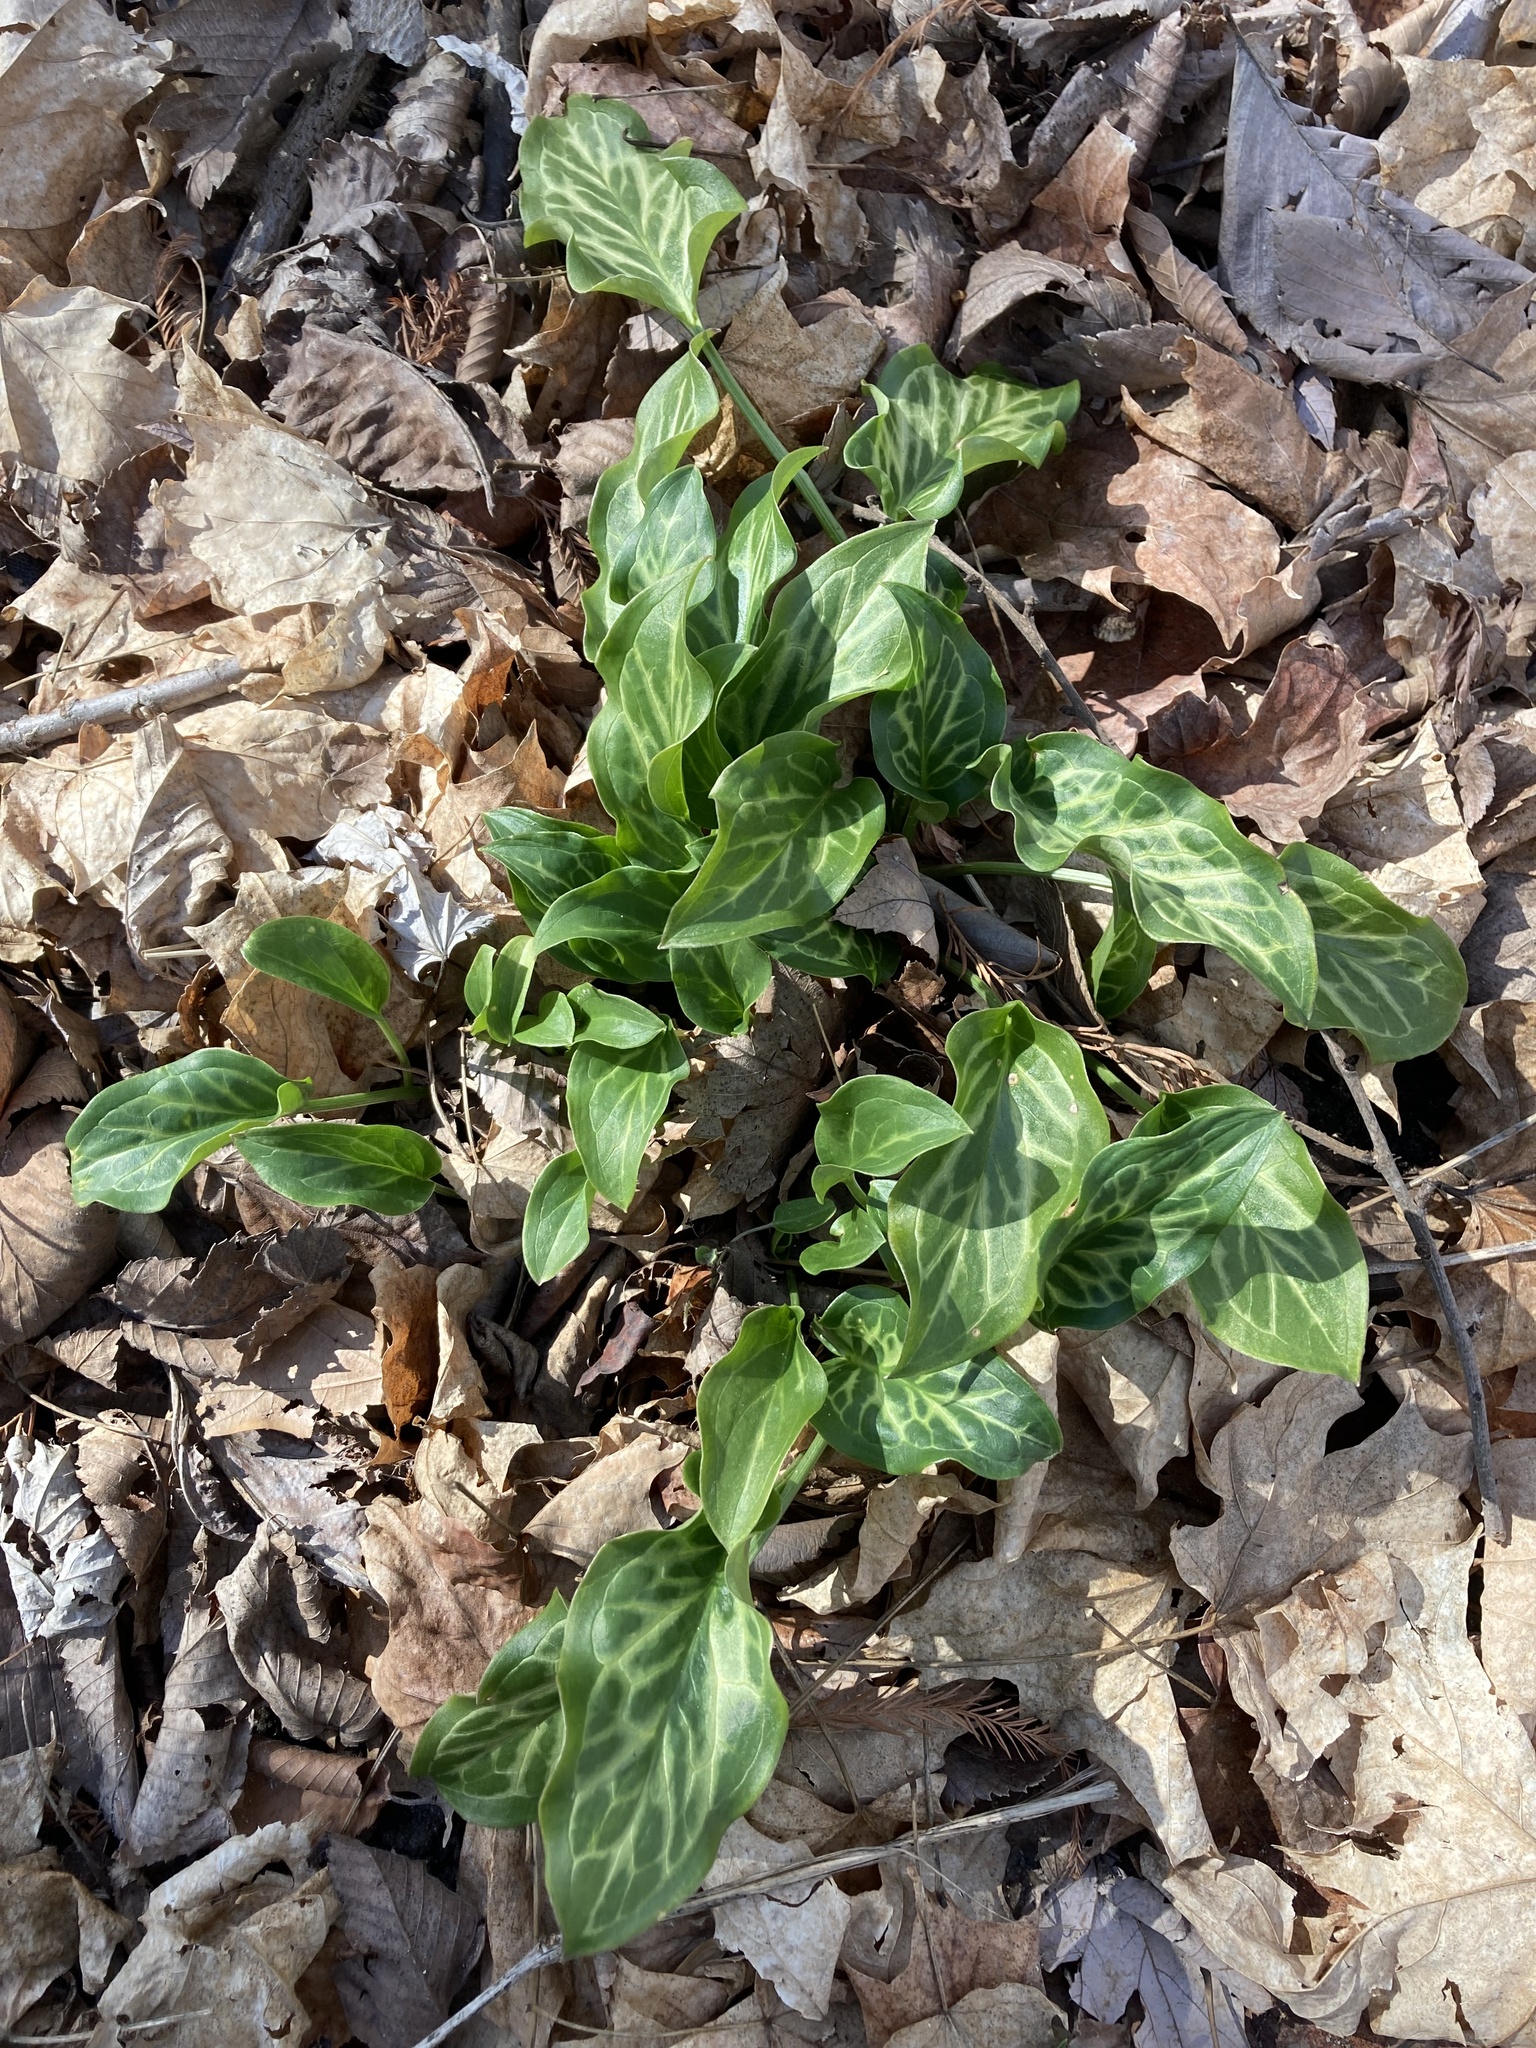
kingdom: Plantae
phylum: Tracheophyta
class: Liliopsida
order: Alismatales
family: Araceae
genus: Arum
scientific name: Arum italicum
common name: Italian lords-and-ladies
